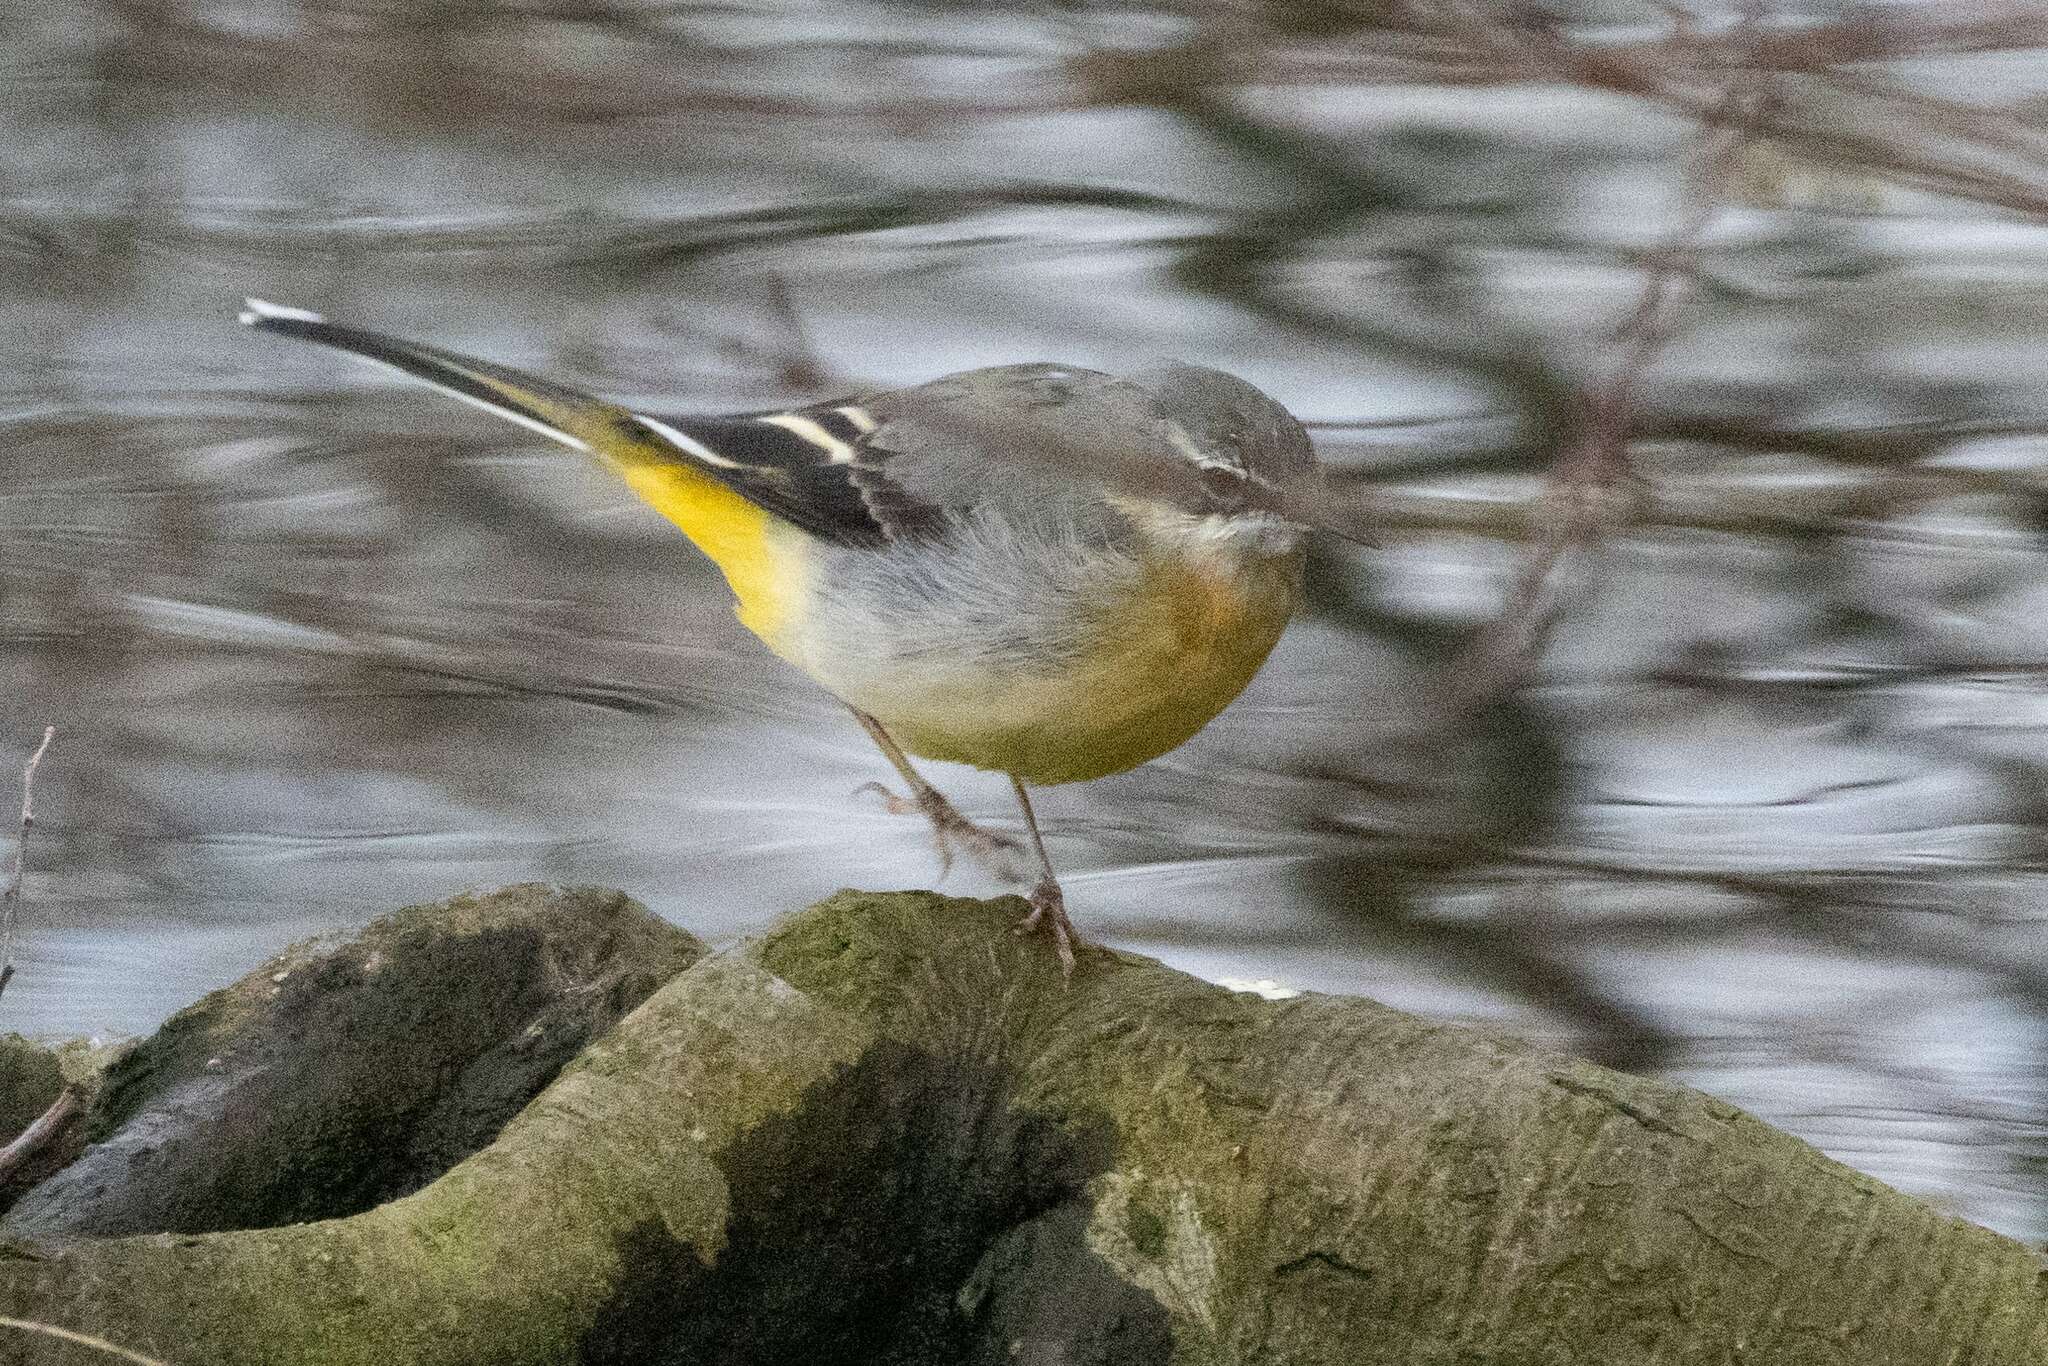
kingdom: Animalia
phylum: Chordata
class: Aves
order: Passeriformes
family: Motacillidae
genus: Motacilla
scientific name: Motacilla cinerea
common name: Grey wagtail
